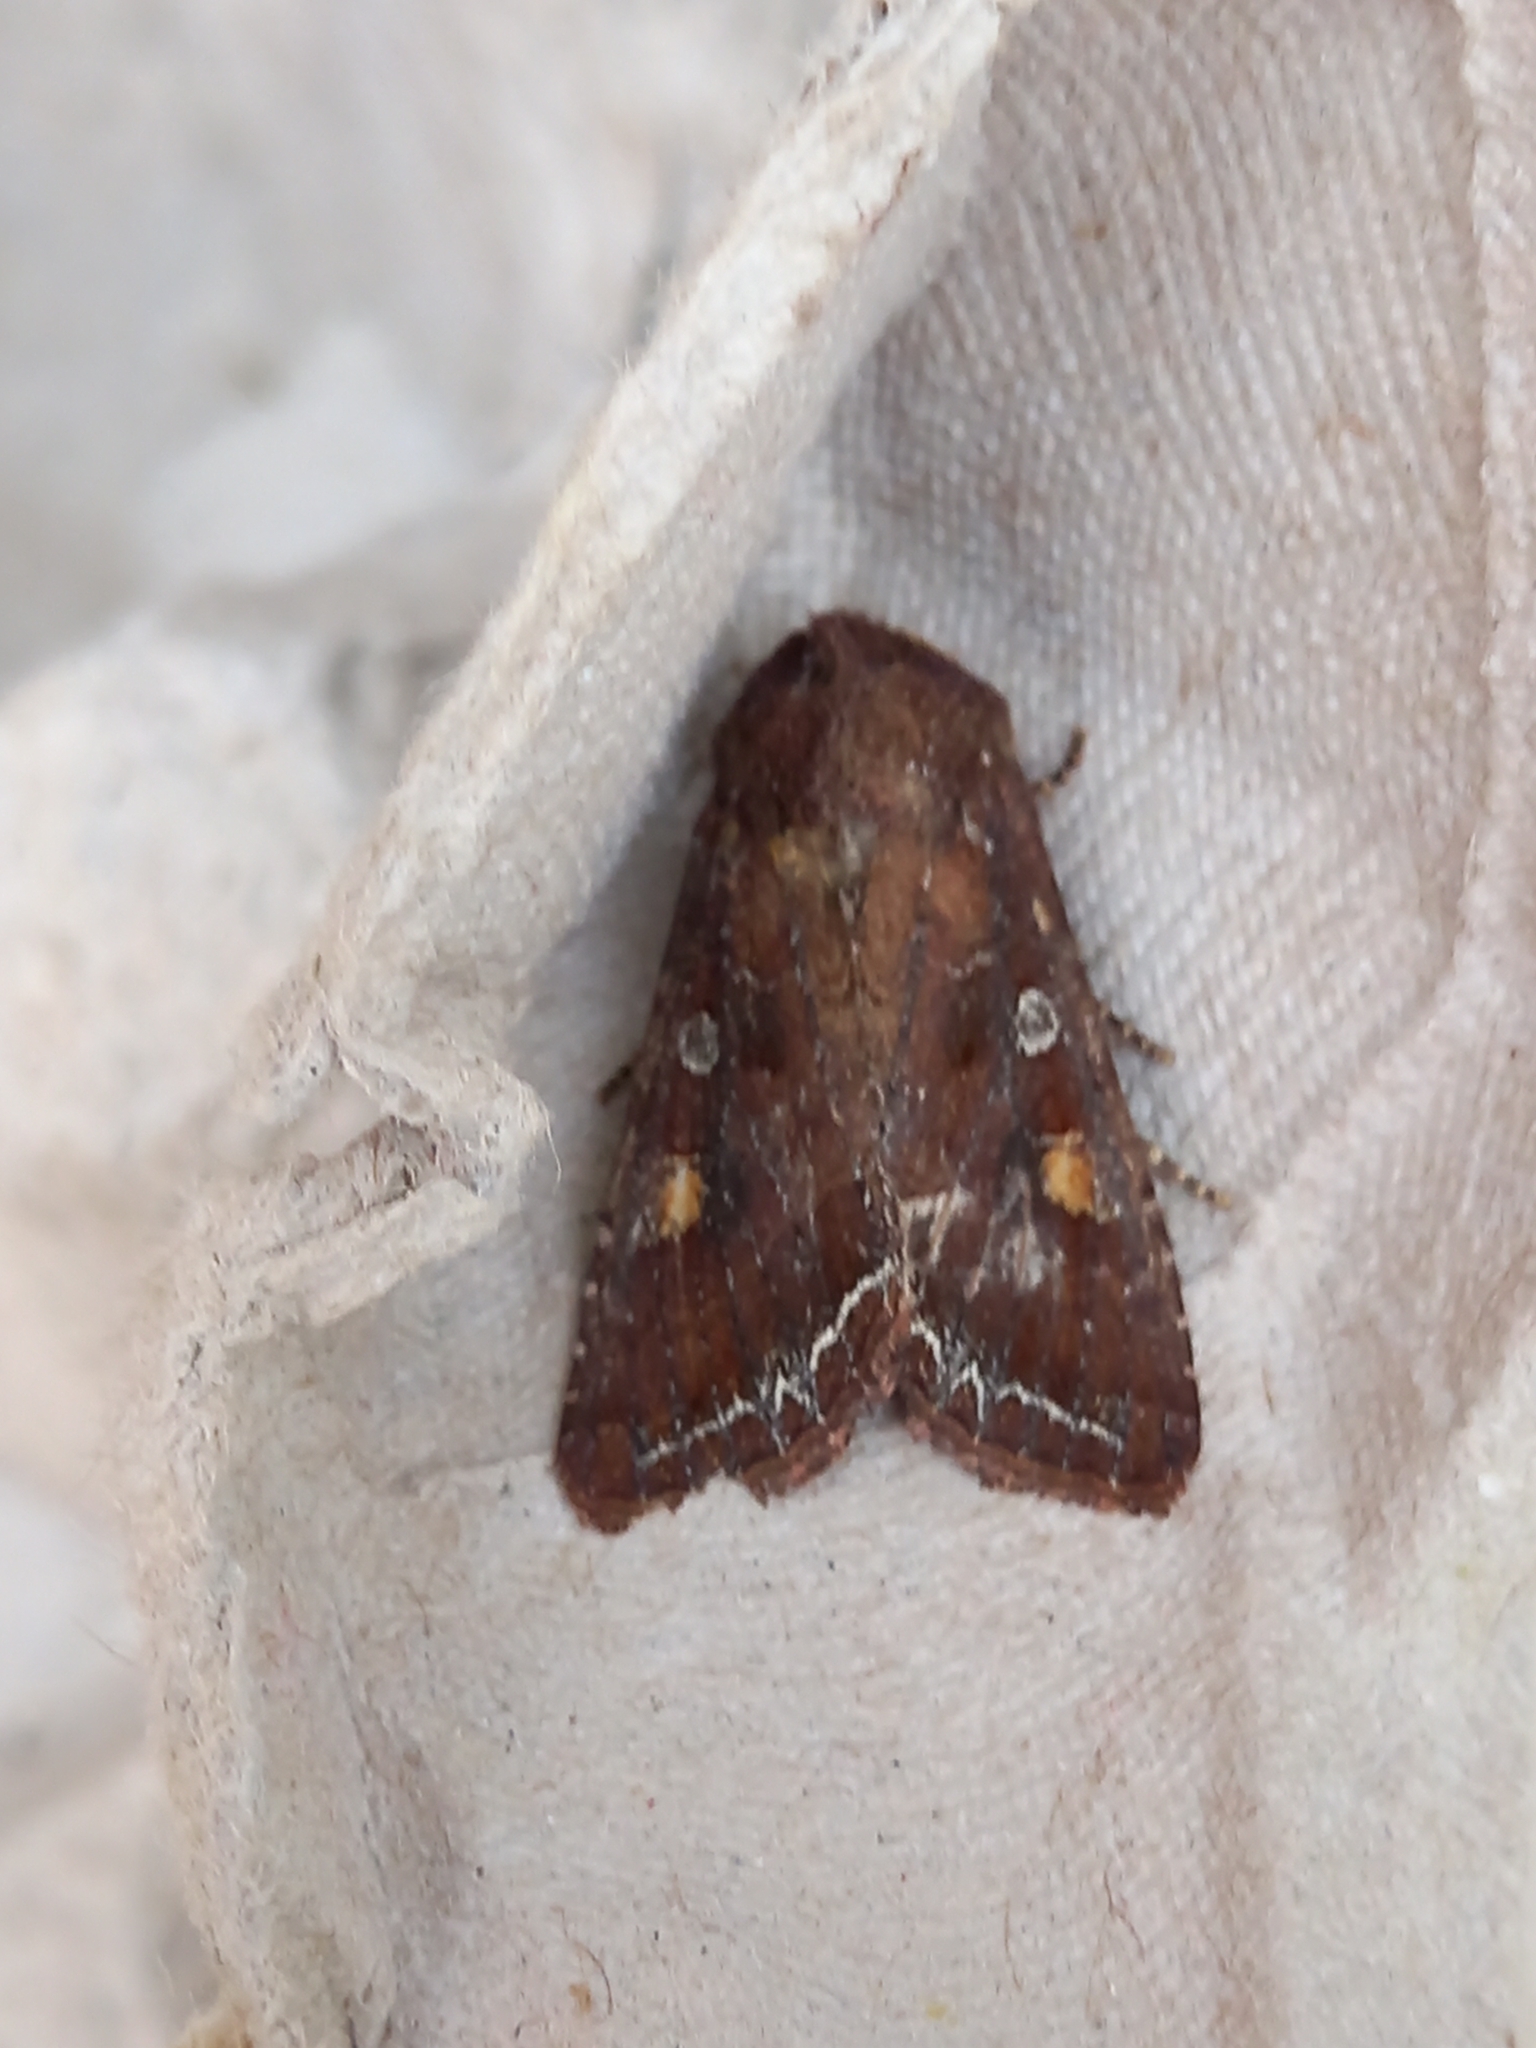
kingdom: Animalia
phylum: Arthropoda
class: Insecta
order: Lepidoptera
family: Noctuidae
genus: Lacanobia
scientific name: Lacanobia oleracea
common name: Bright-line brown-eye
